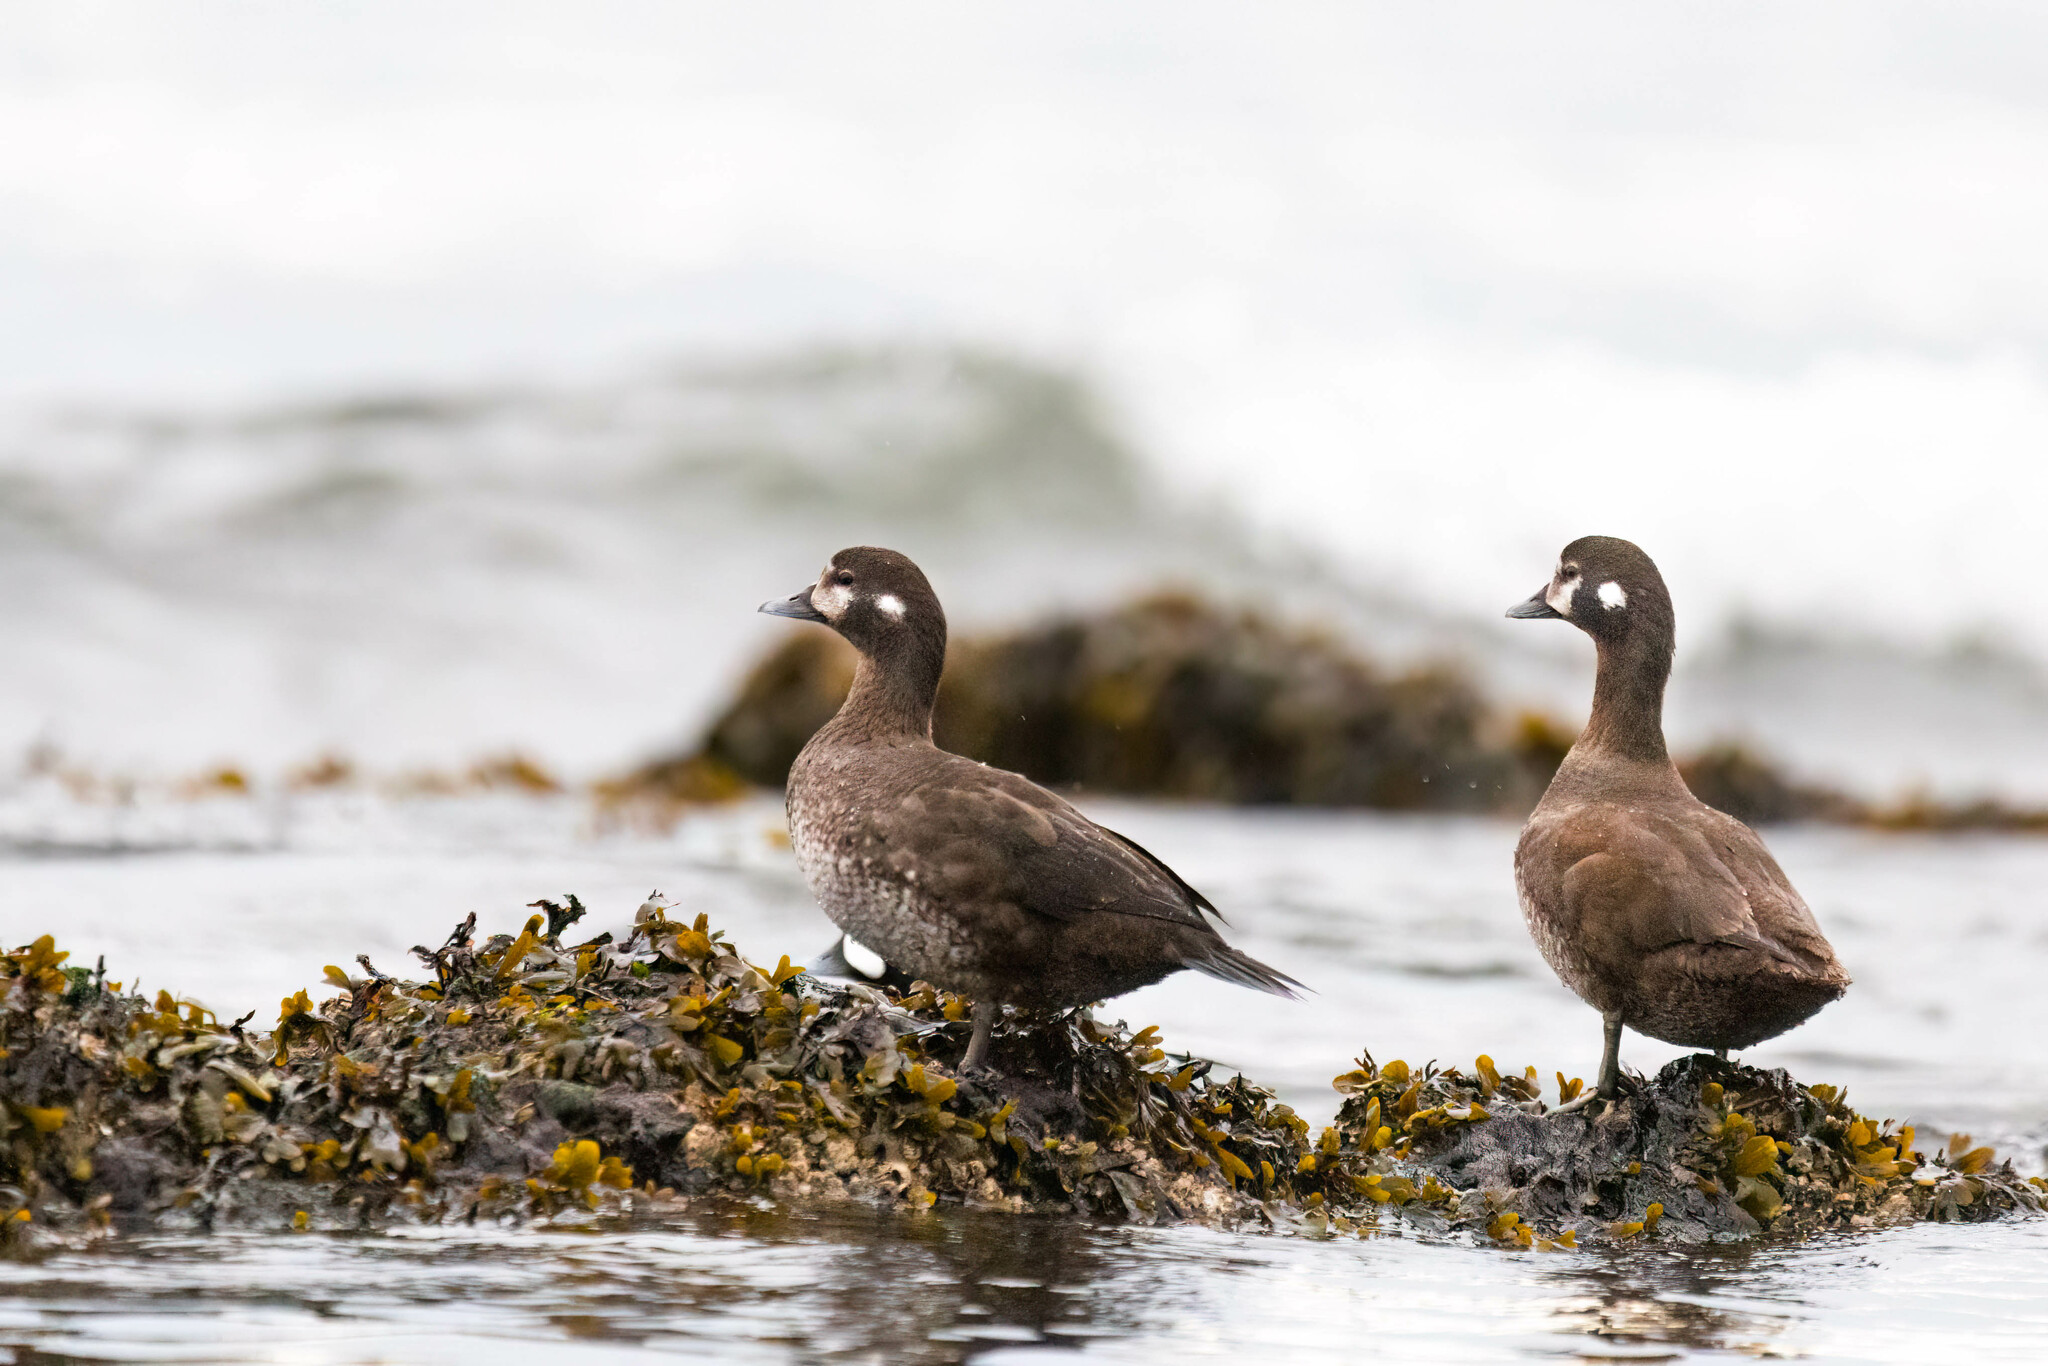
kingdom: Animalia
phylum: Chordata
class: Aves
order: Anseriformes
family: Anatidae
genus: Histrionicus
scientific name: Histrionicus histrionicus
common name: Harlequin duck
